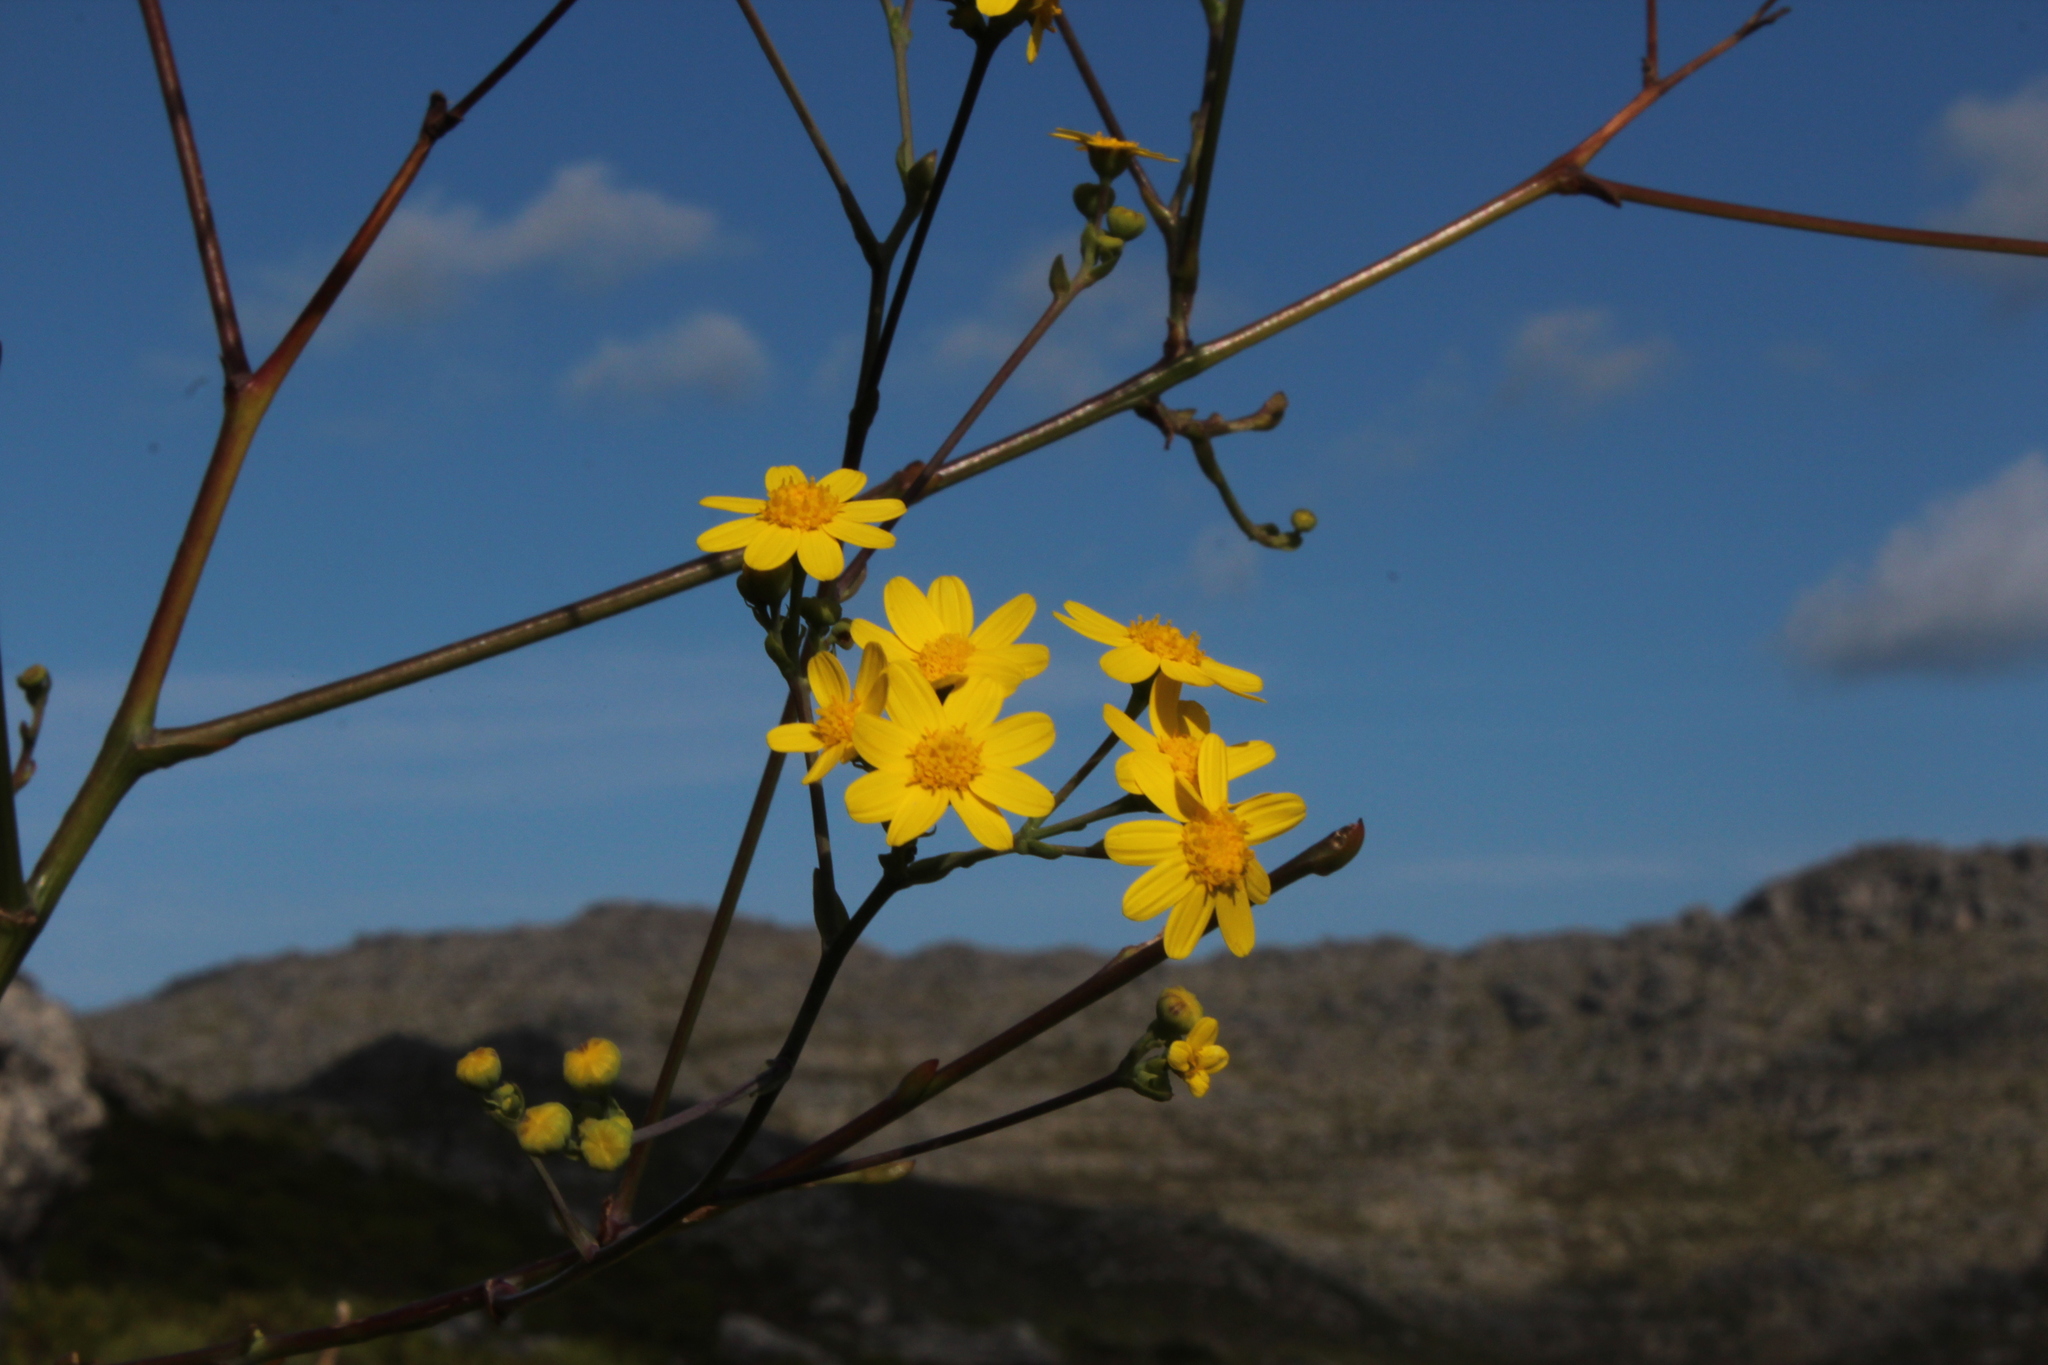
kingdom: Plantae
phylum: Tracheophyta
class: Magnoliopsida
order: Asterales
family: Asteraceae
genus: Othonna
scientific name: Othonna quinquedentata
